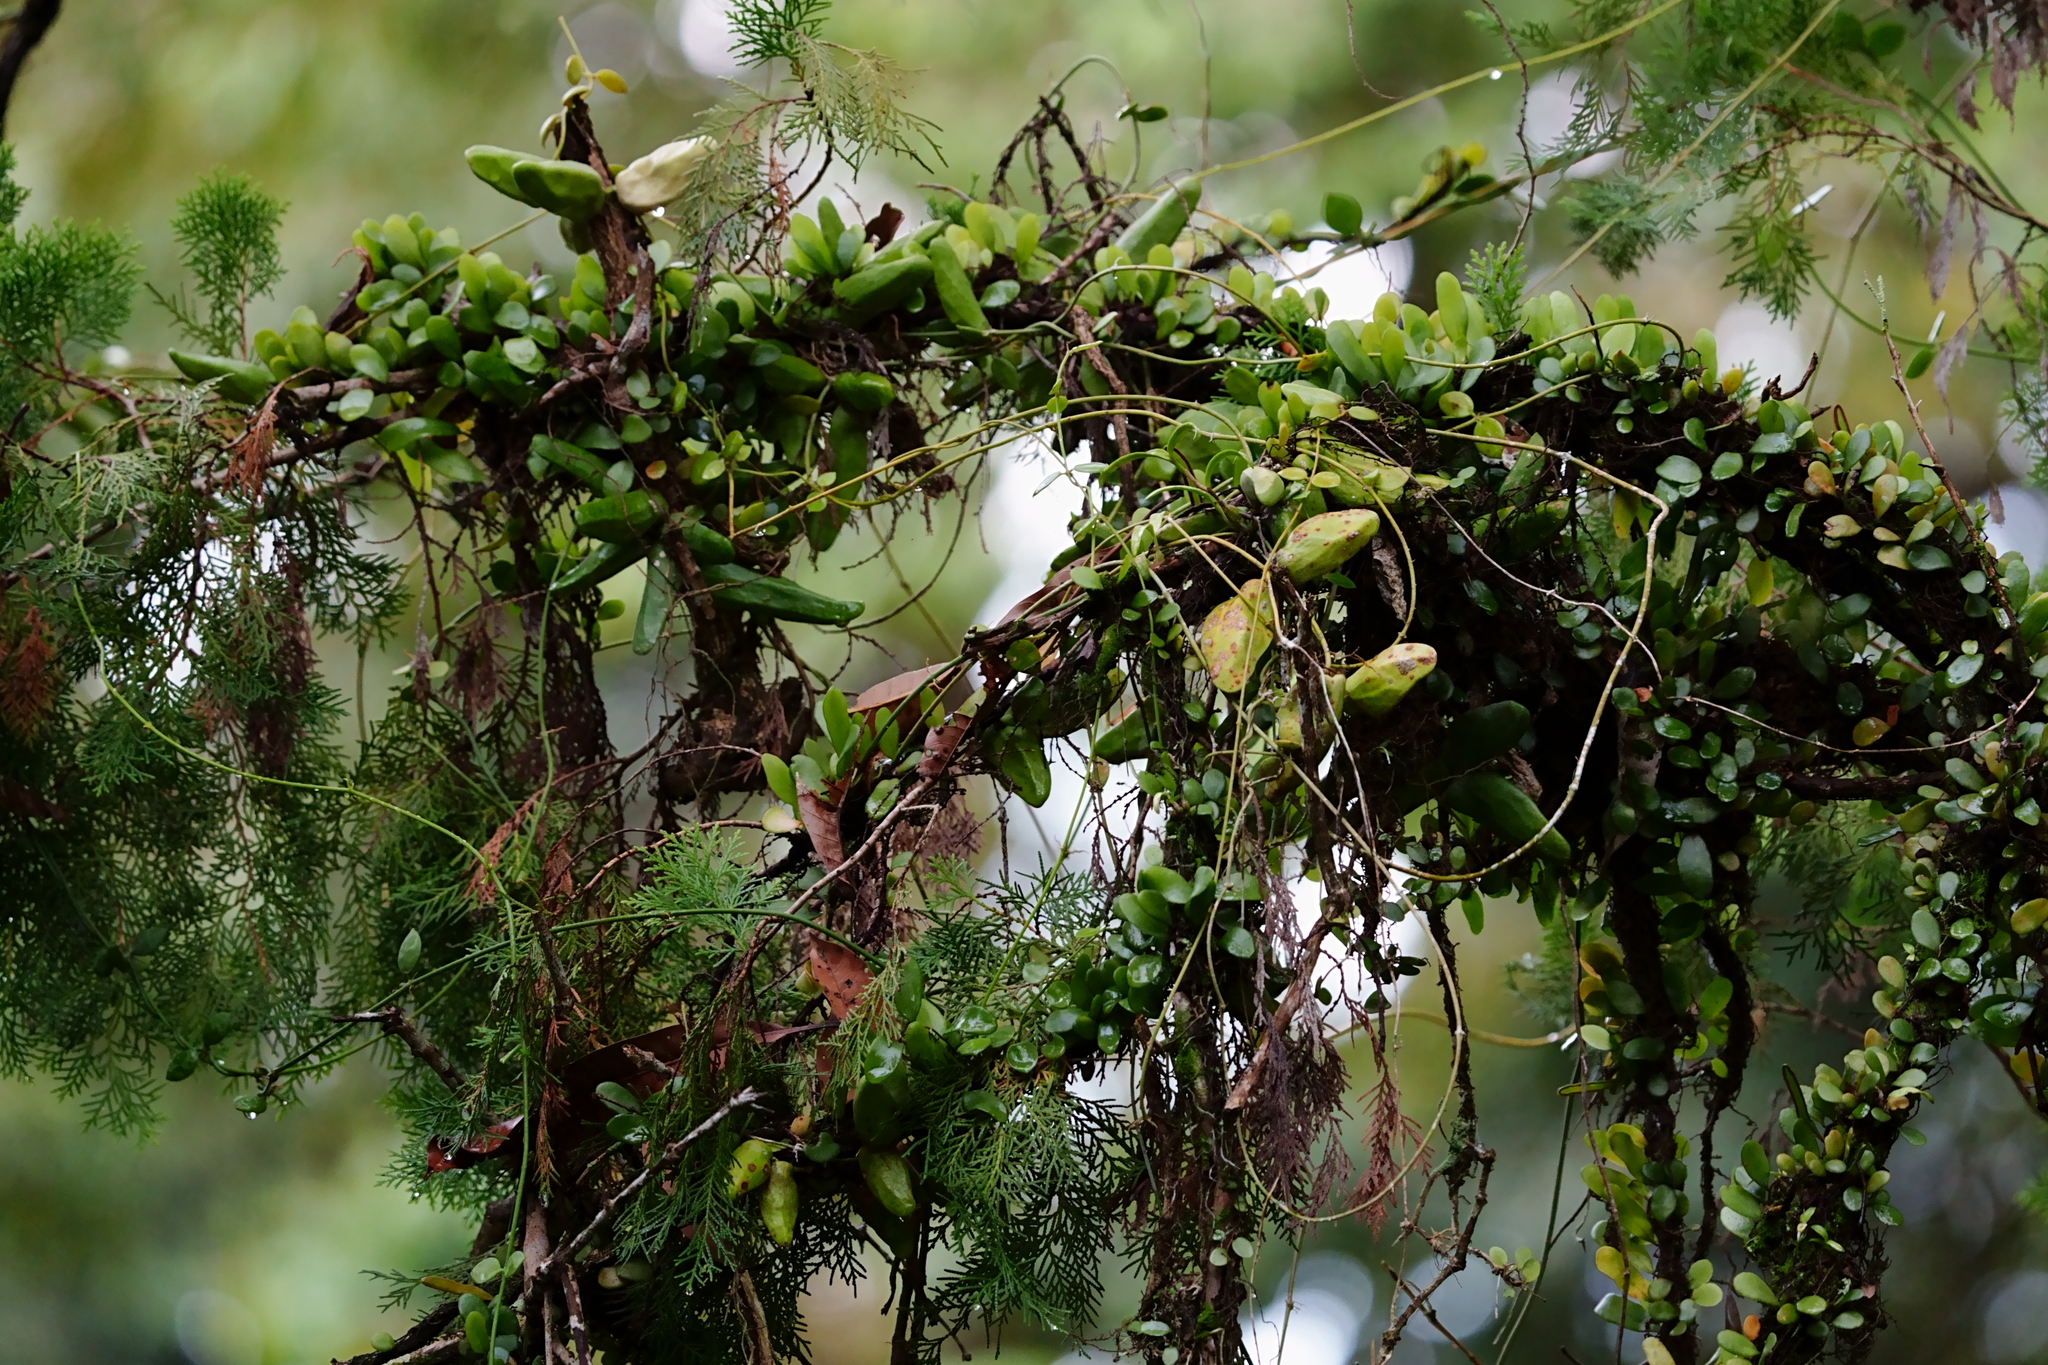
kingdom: Plantae
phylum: Tracheophyta
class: Magnoliopsida
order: Gentianales
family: Apocynaceae
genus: Dischidia
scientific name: Dischidia major
